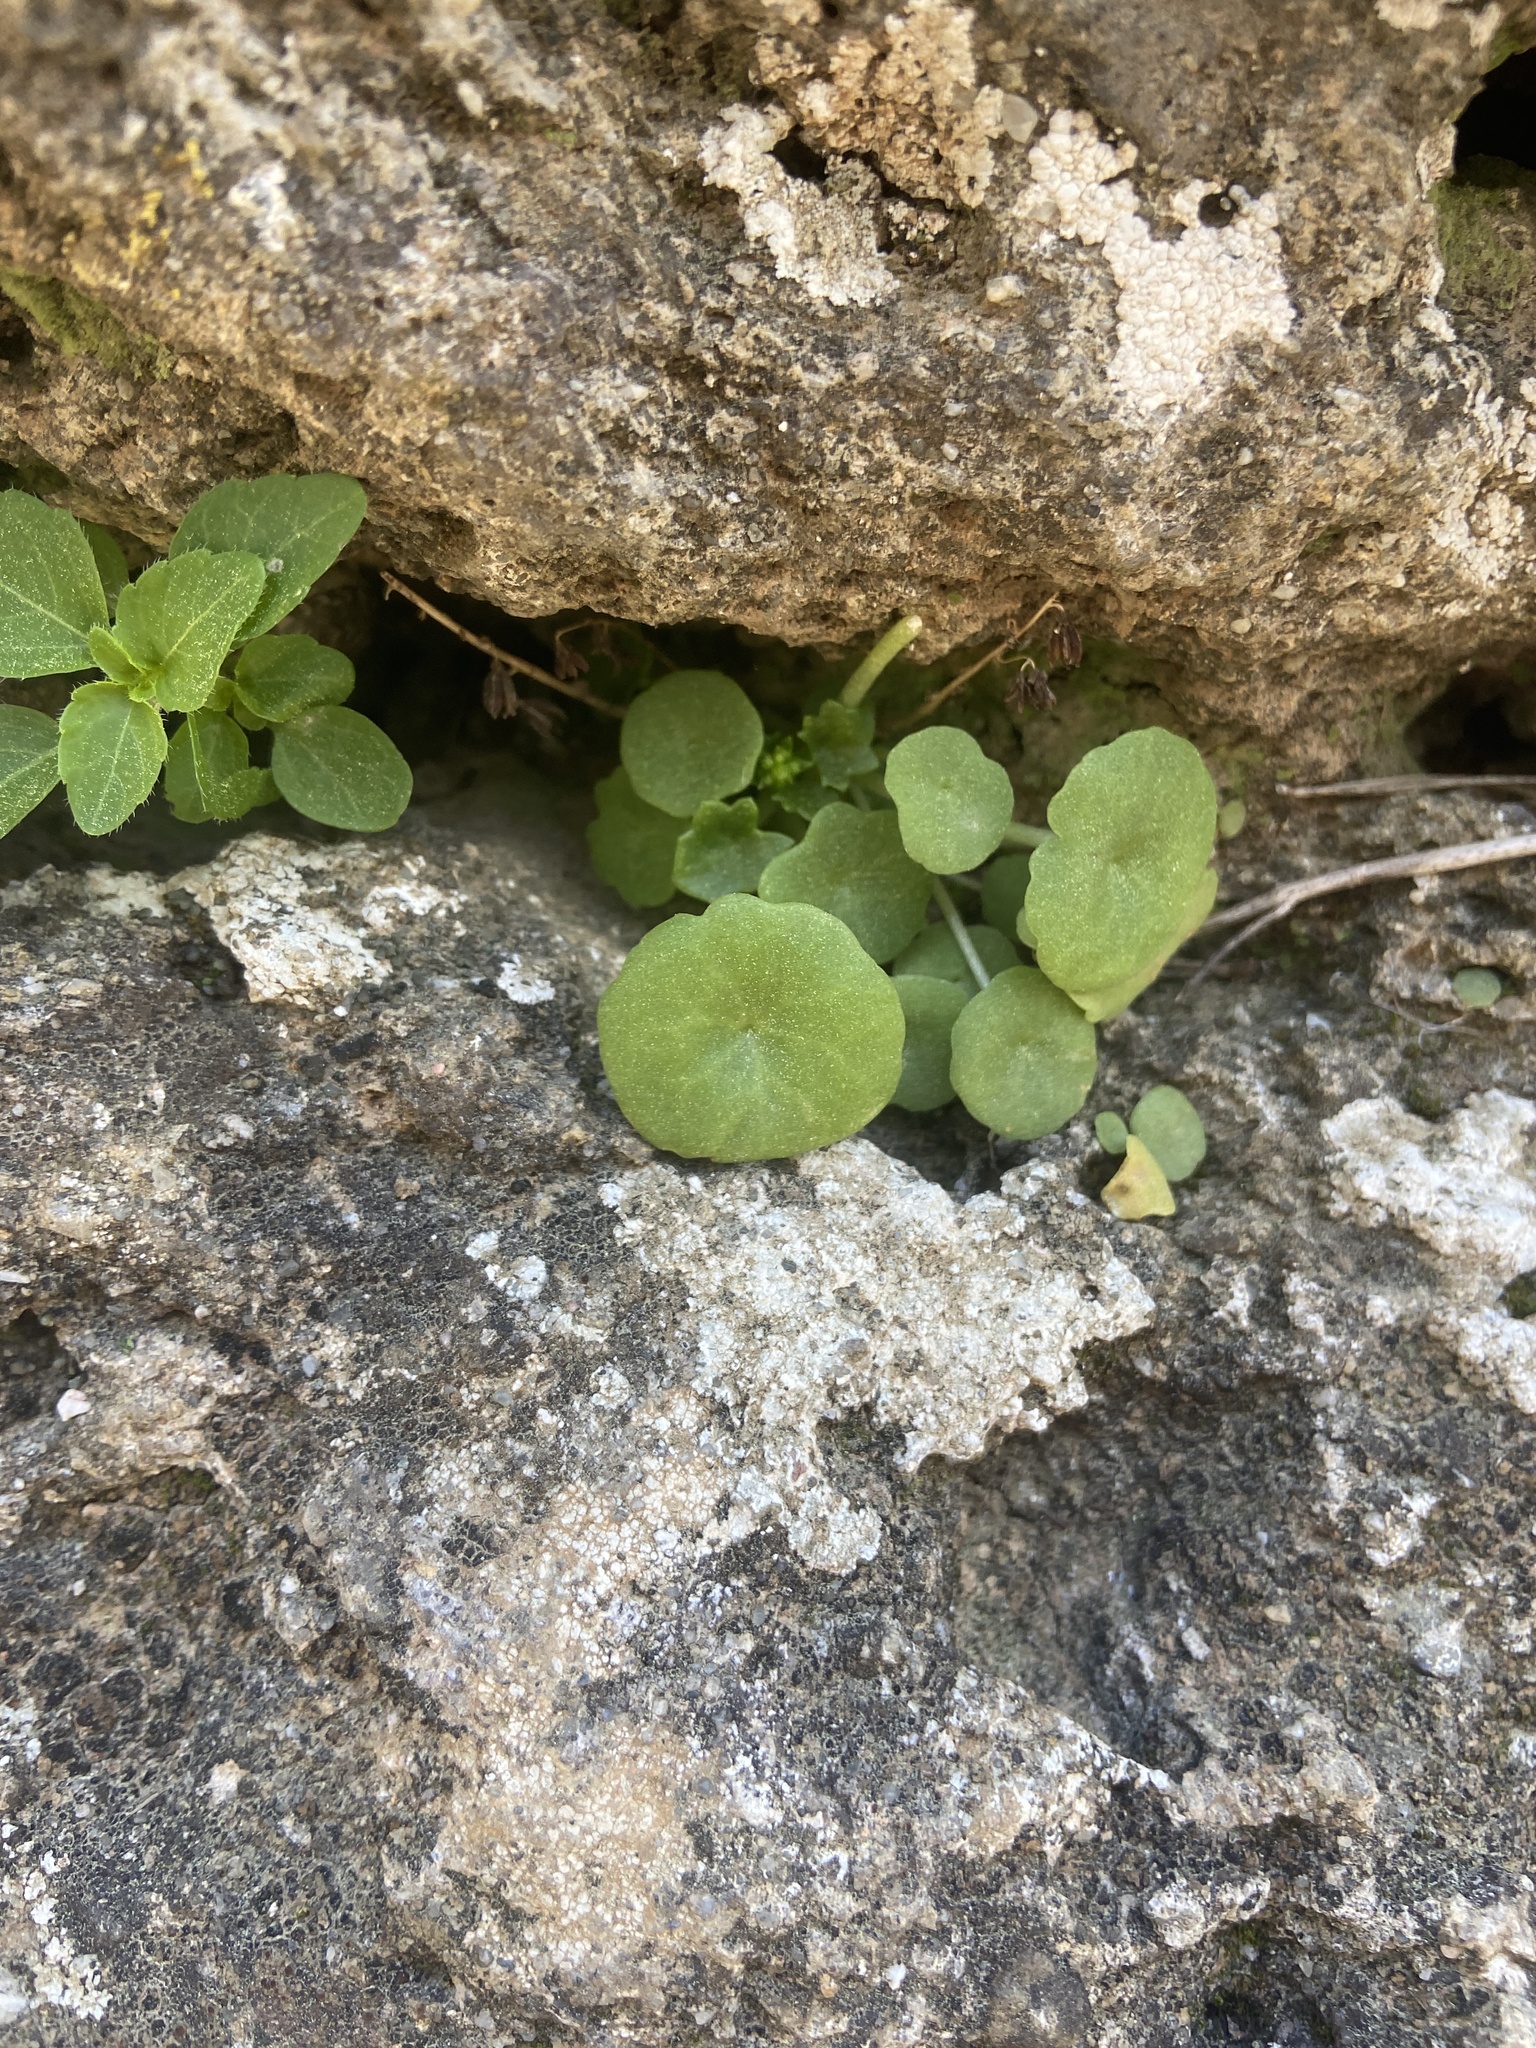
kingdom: Plantae
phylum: Tracheophyta
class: Magnoliopsida
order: Saxifragales
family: Crassulaceae
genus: Umbilicus
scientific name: Umbilicus rupestris
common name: Navelwort
